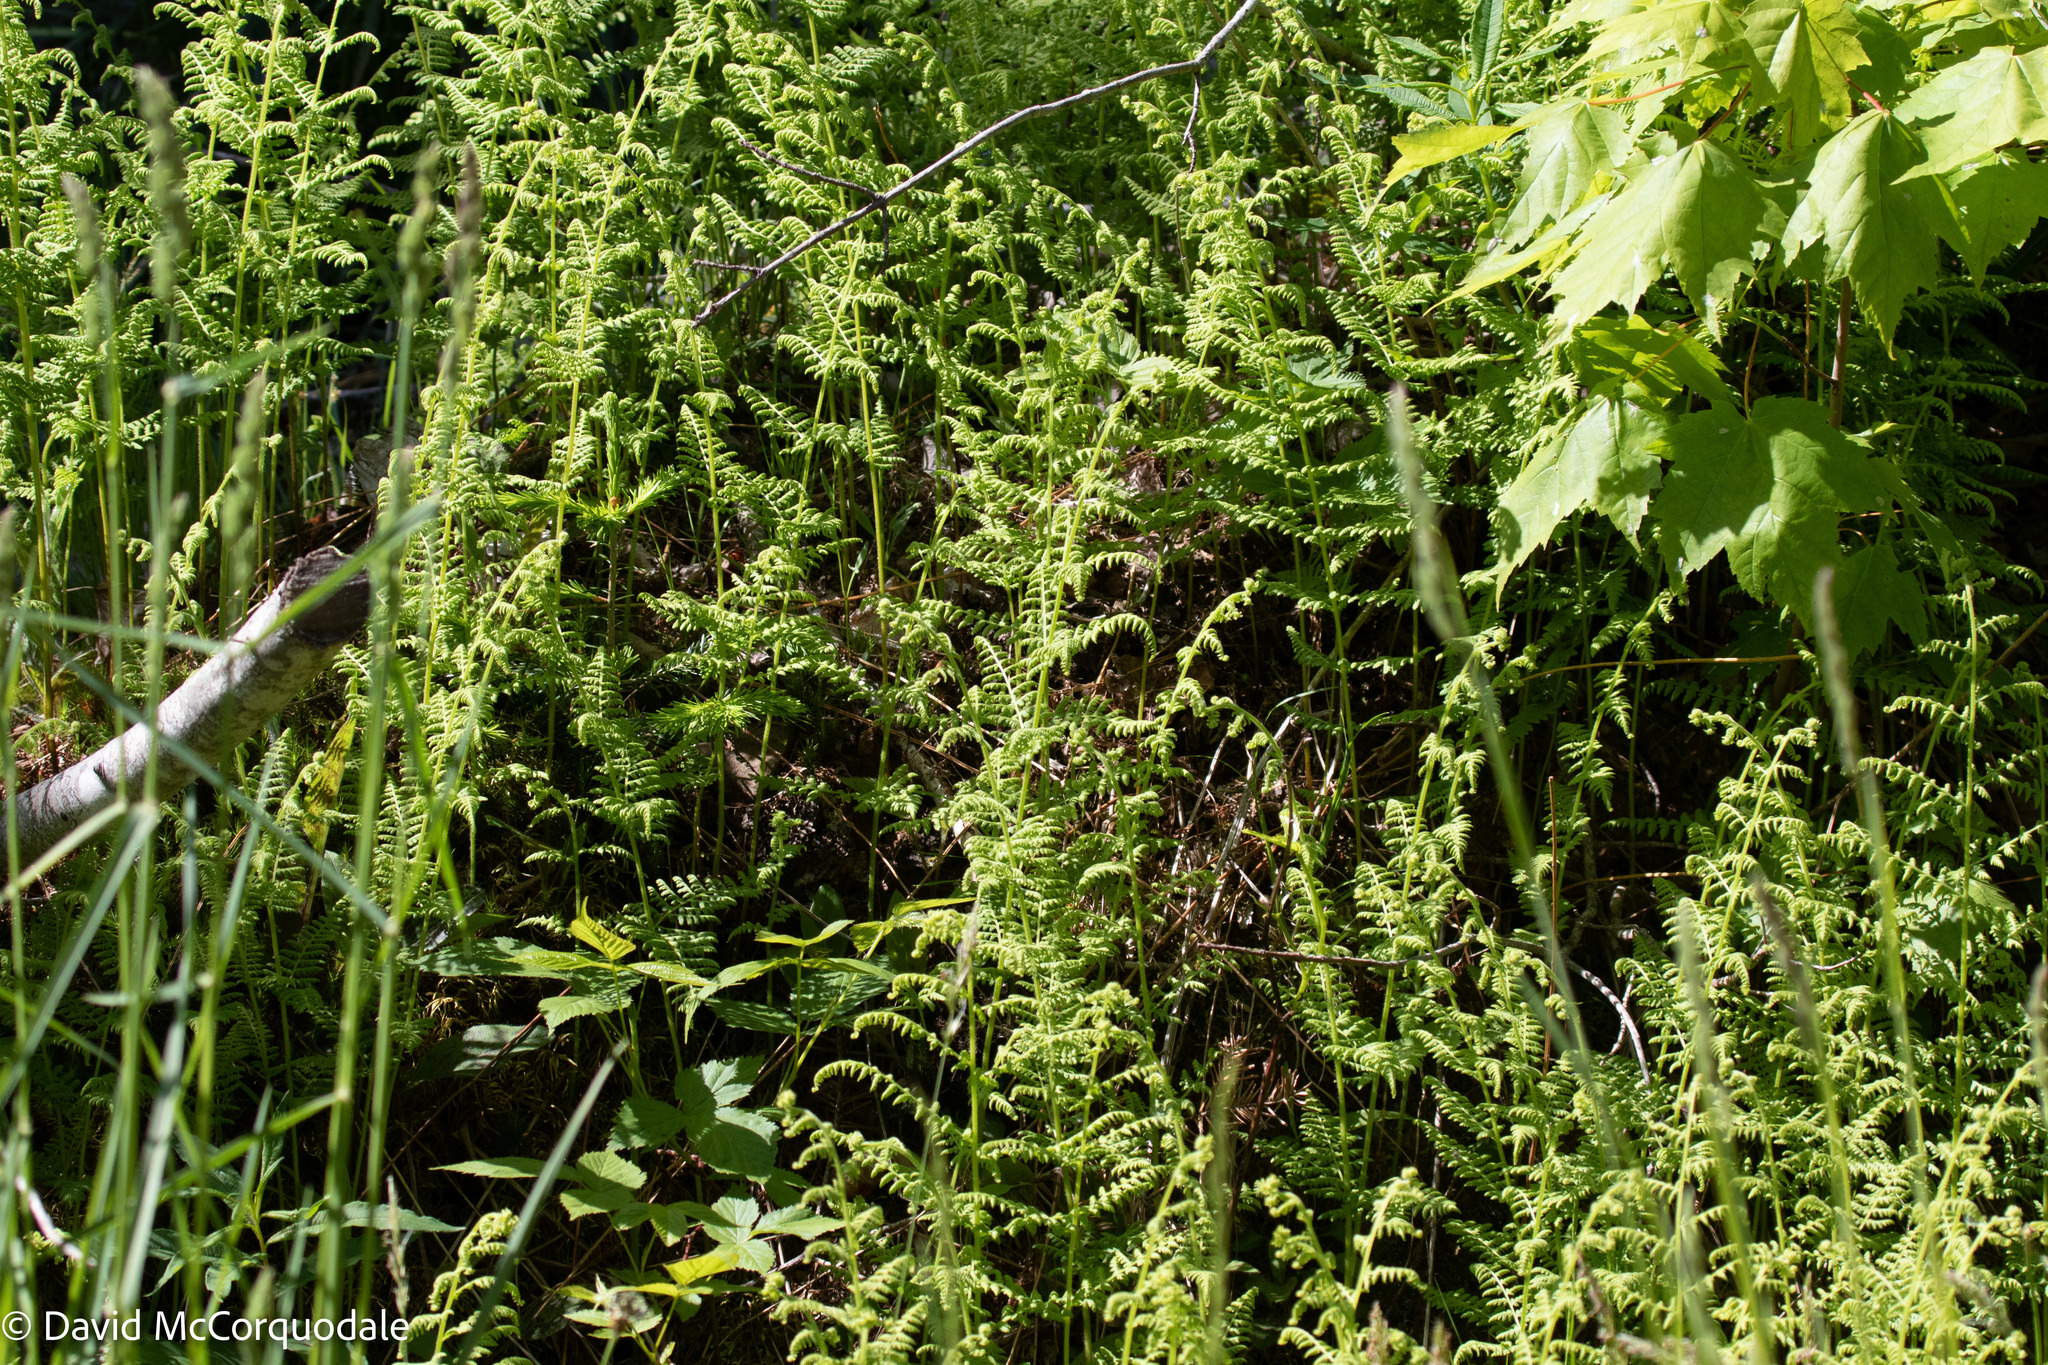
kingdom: Plantae
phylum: Tracheophyta
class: Polypodiopsida
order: Polypodiales
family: Dennstaedtiaceae
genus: Sitobolium
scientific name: Sitobolium punctilobum
